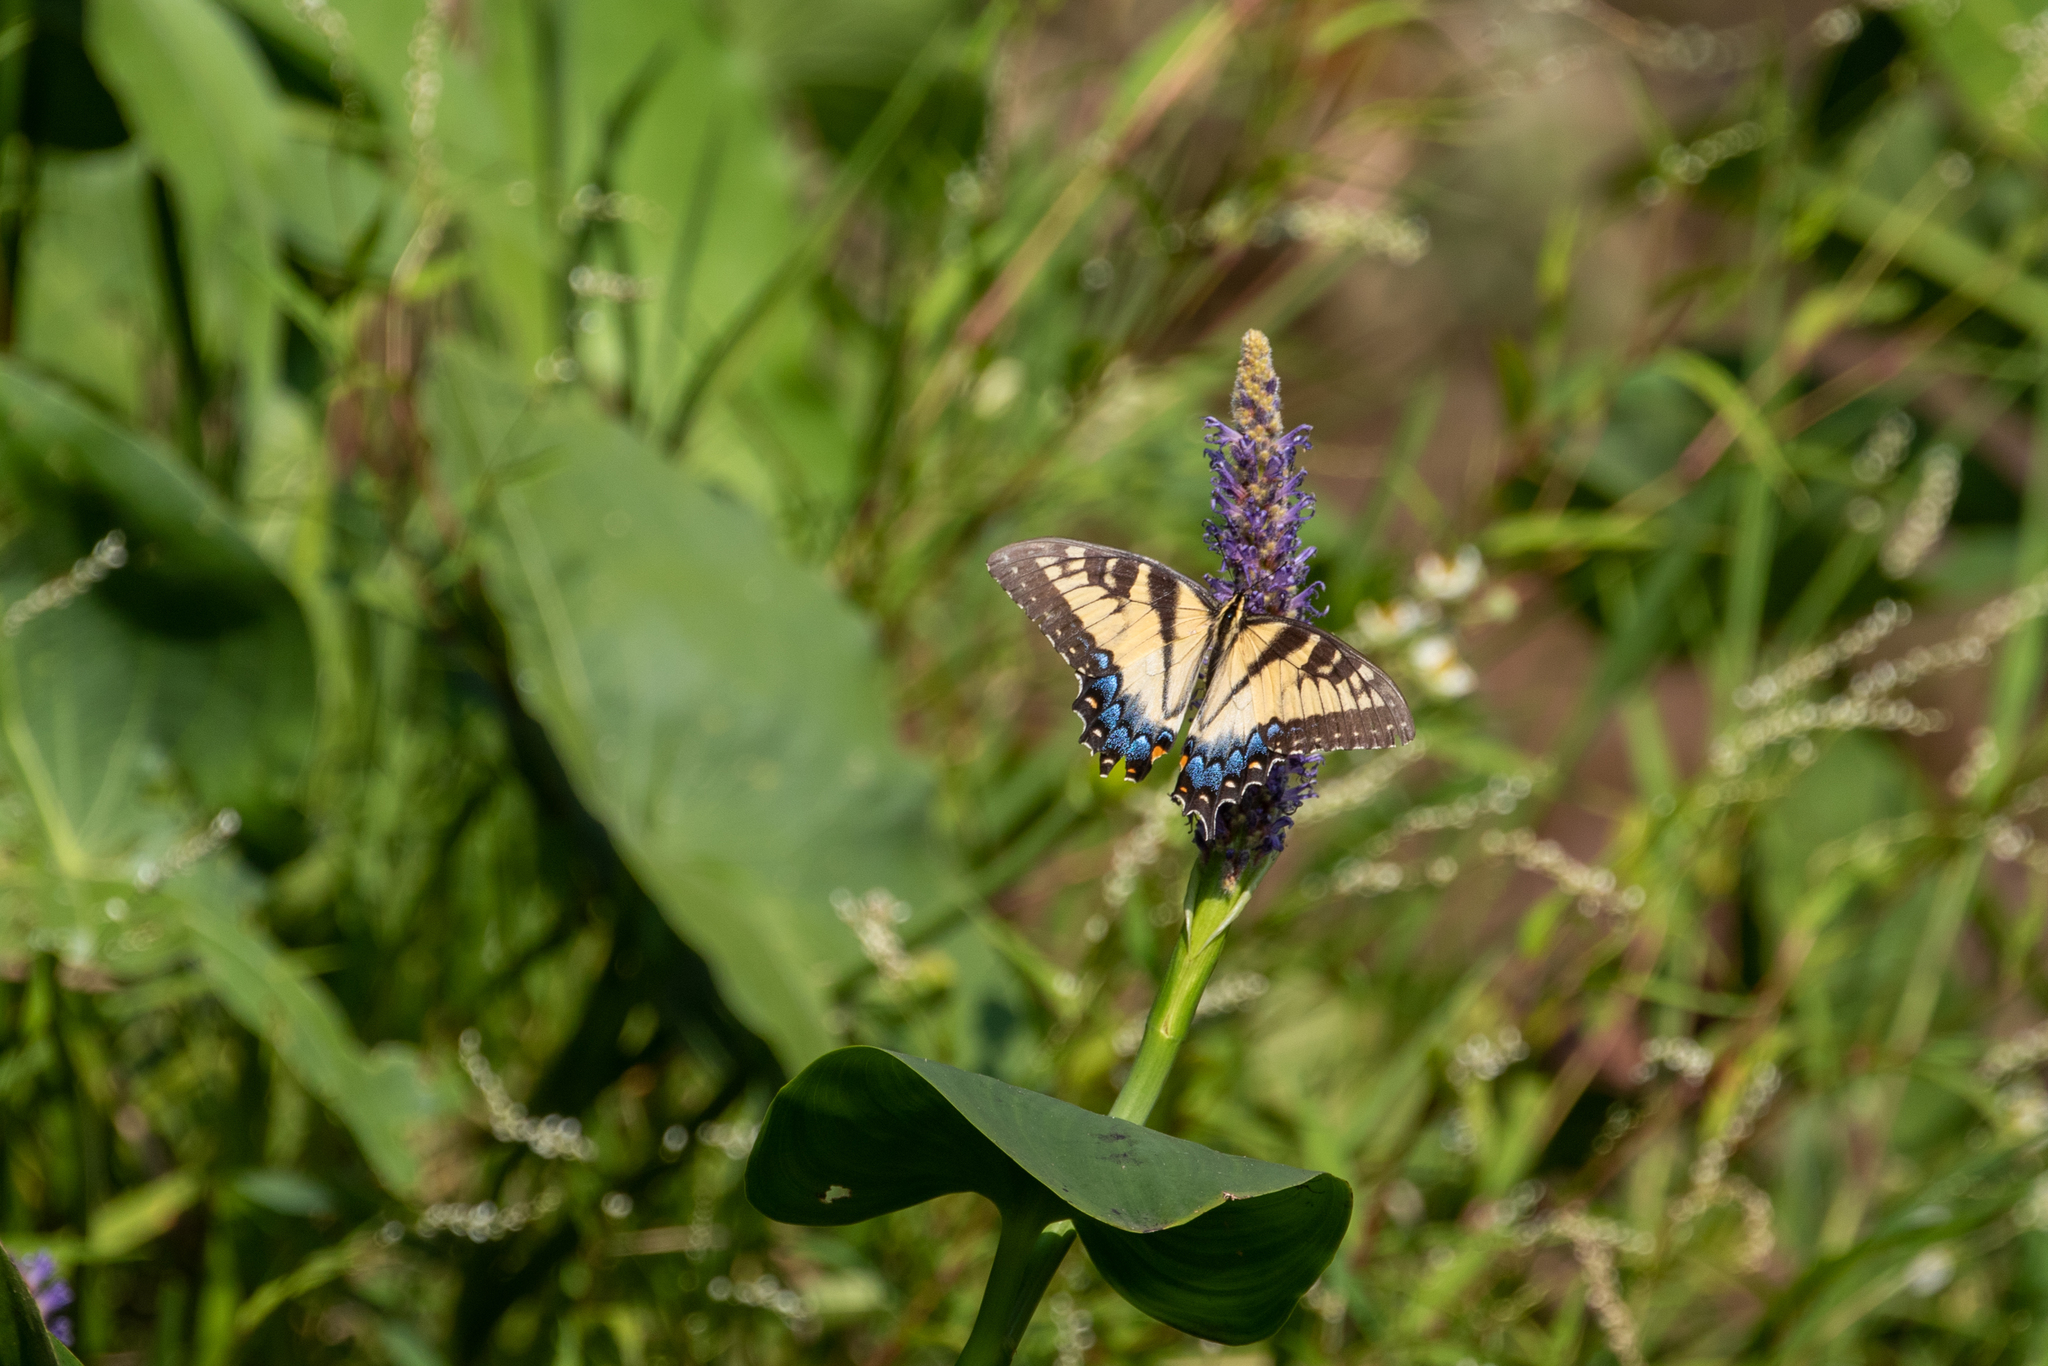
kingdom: Animalia
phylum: Arthropoda
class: Insecta
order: Lepidoptera
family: Papilionidae
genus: Papilio
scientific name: Papilio glaucus
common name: Tiger swallowtail
